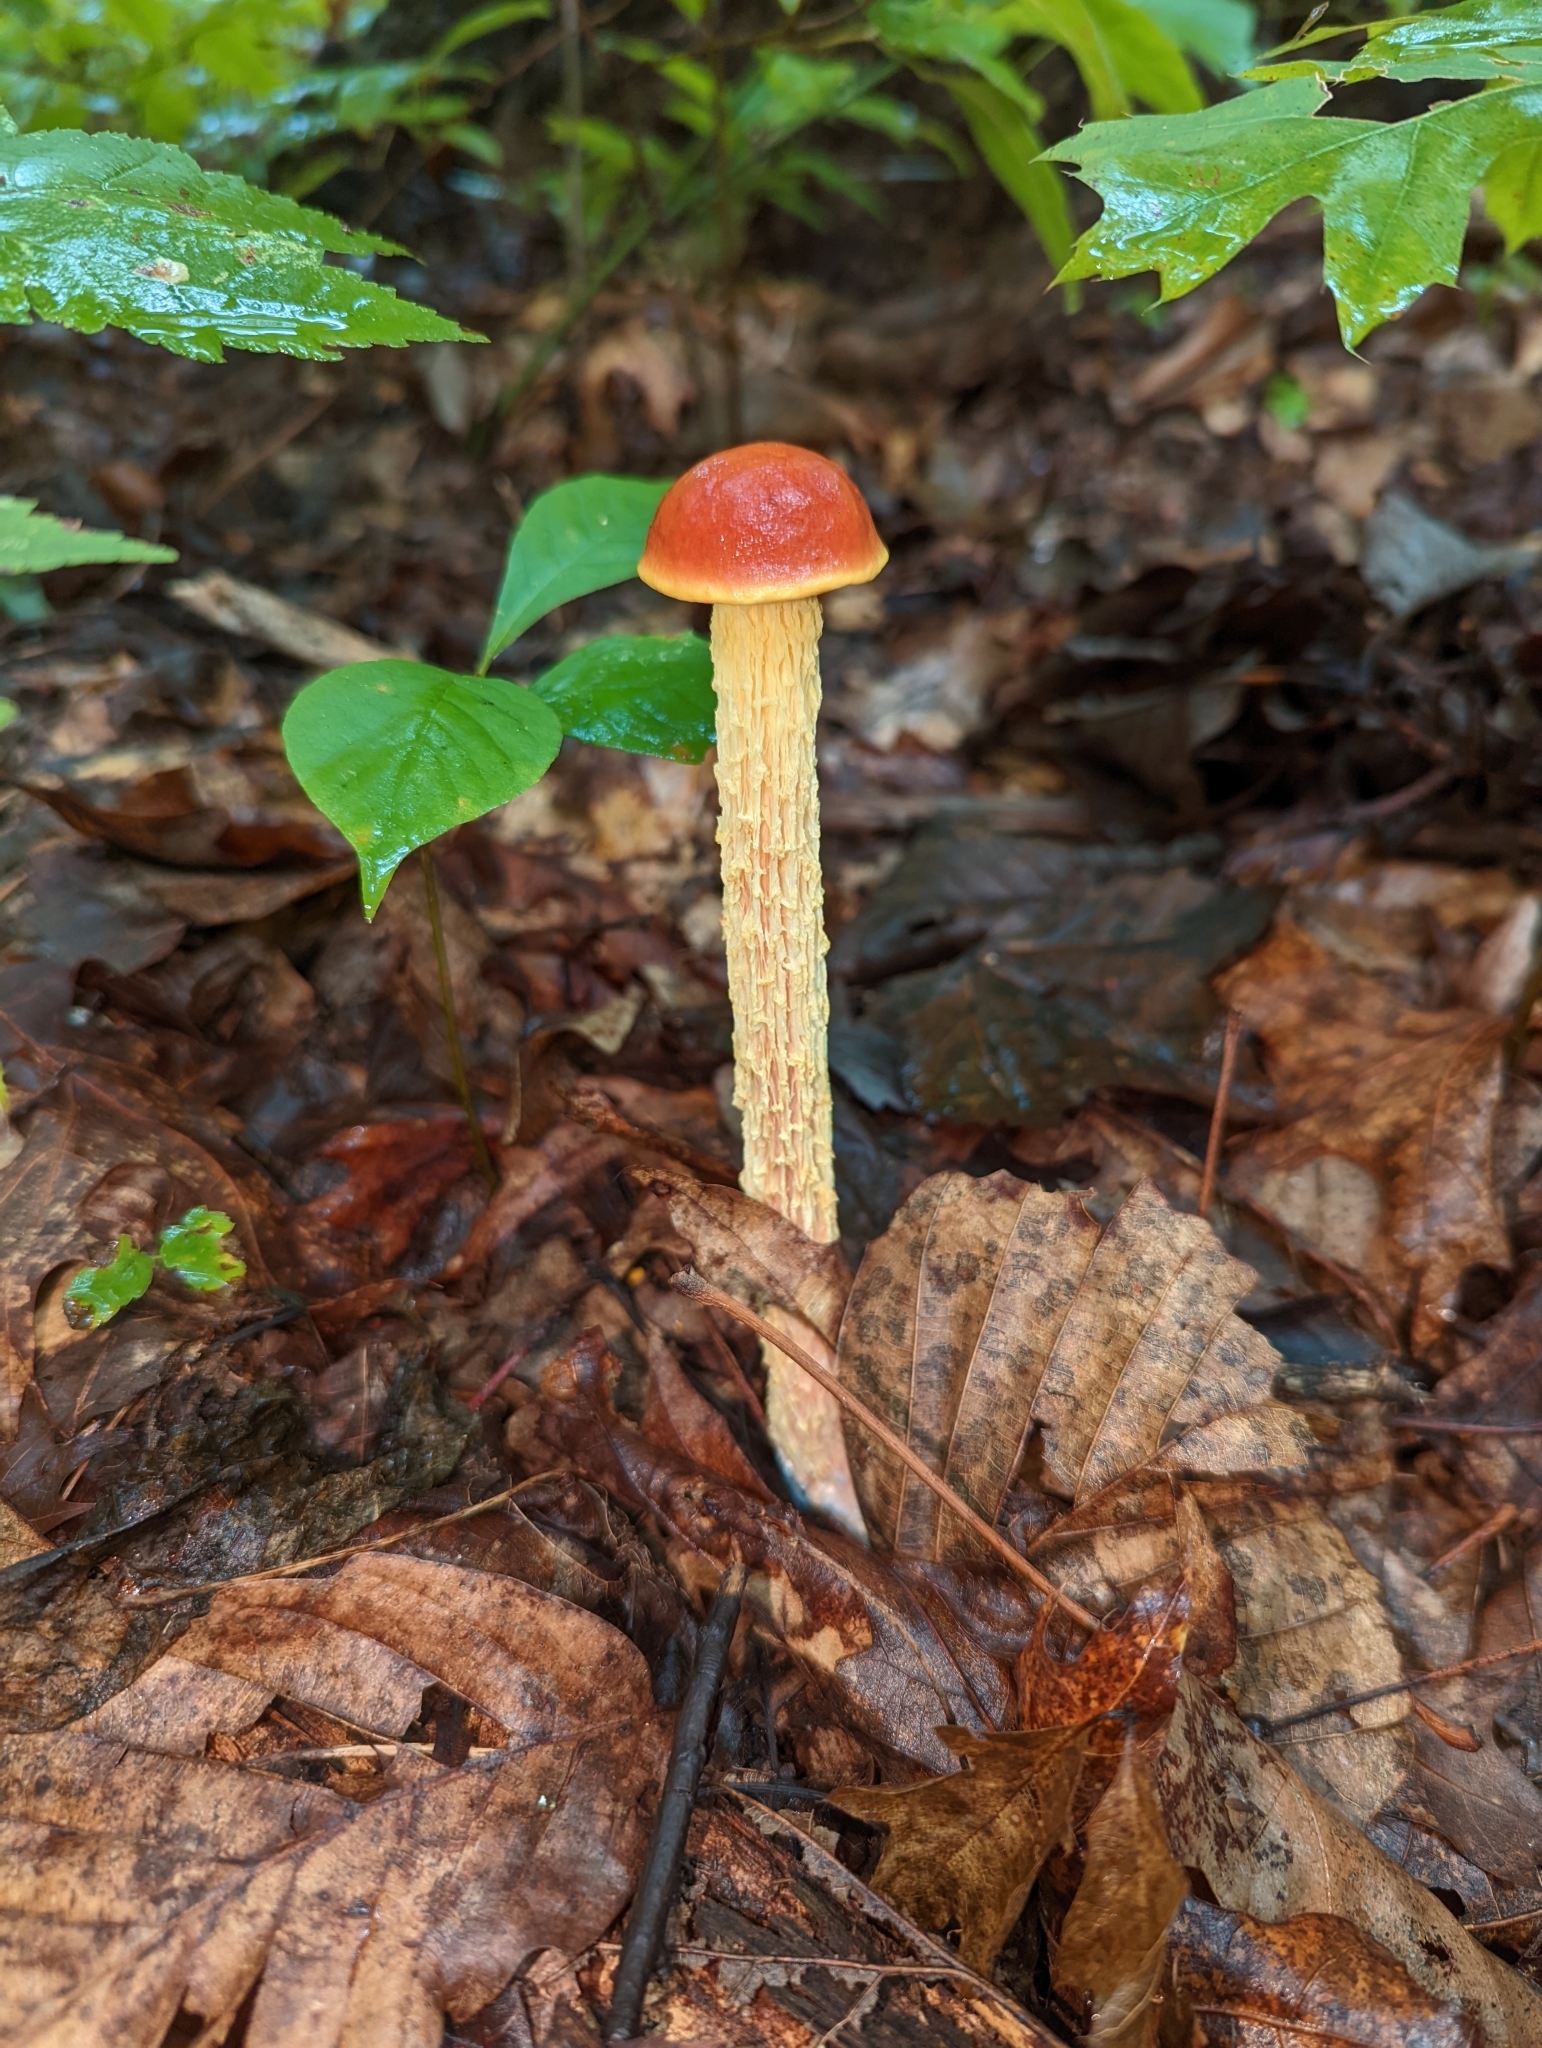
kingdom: Fungi
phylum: Basidiomycota
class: Agaricomycetes
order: Boletales
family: Boletaceae
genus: Aureoboletus
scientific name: Aureoboletus betula
